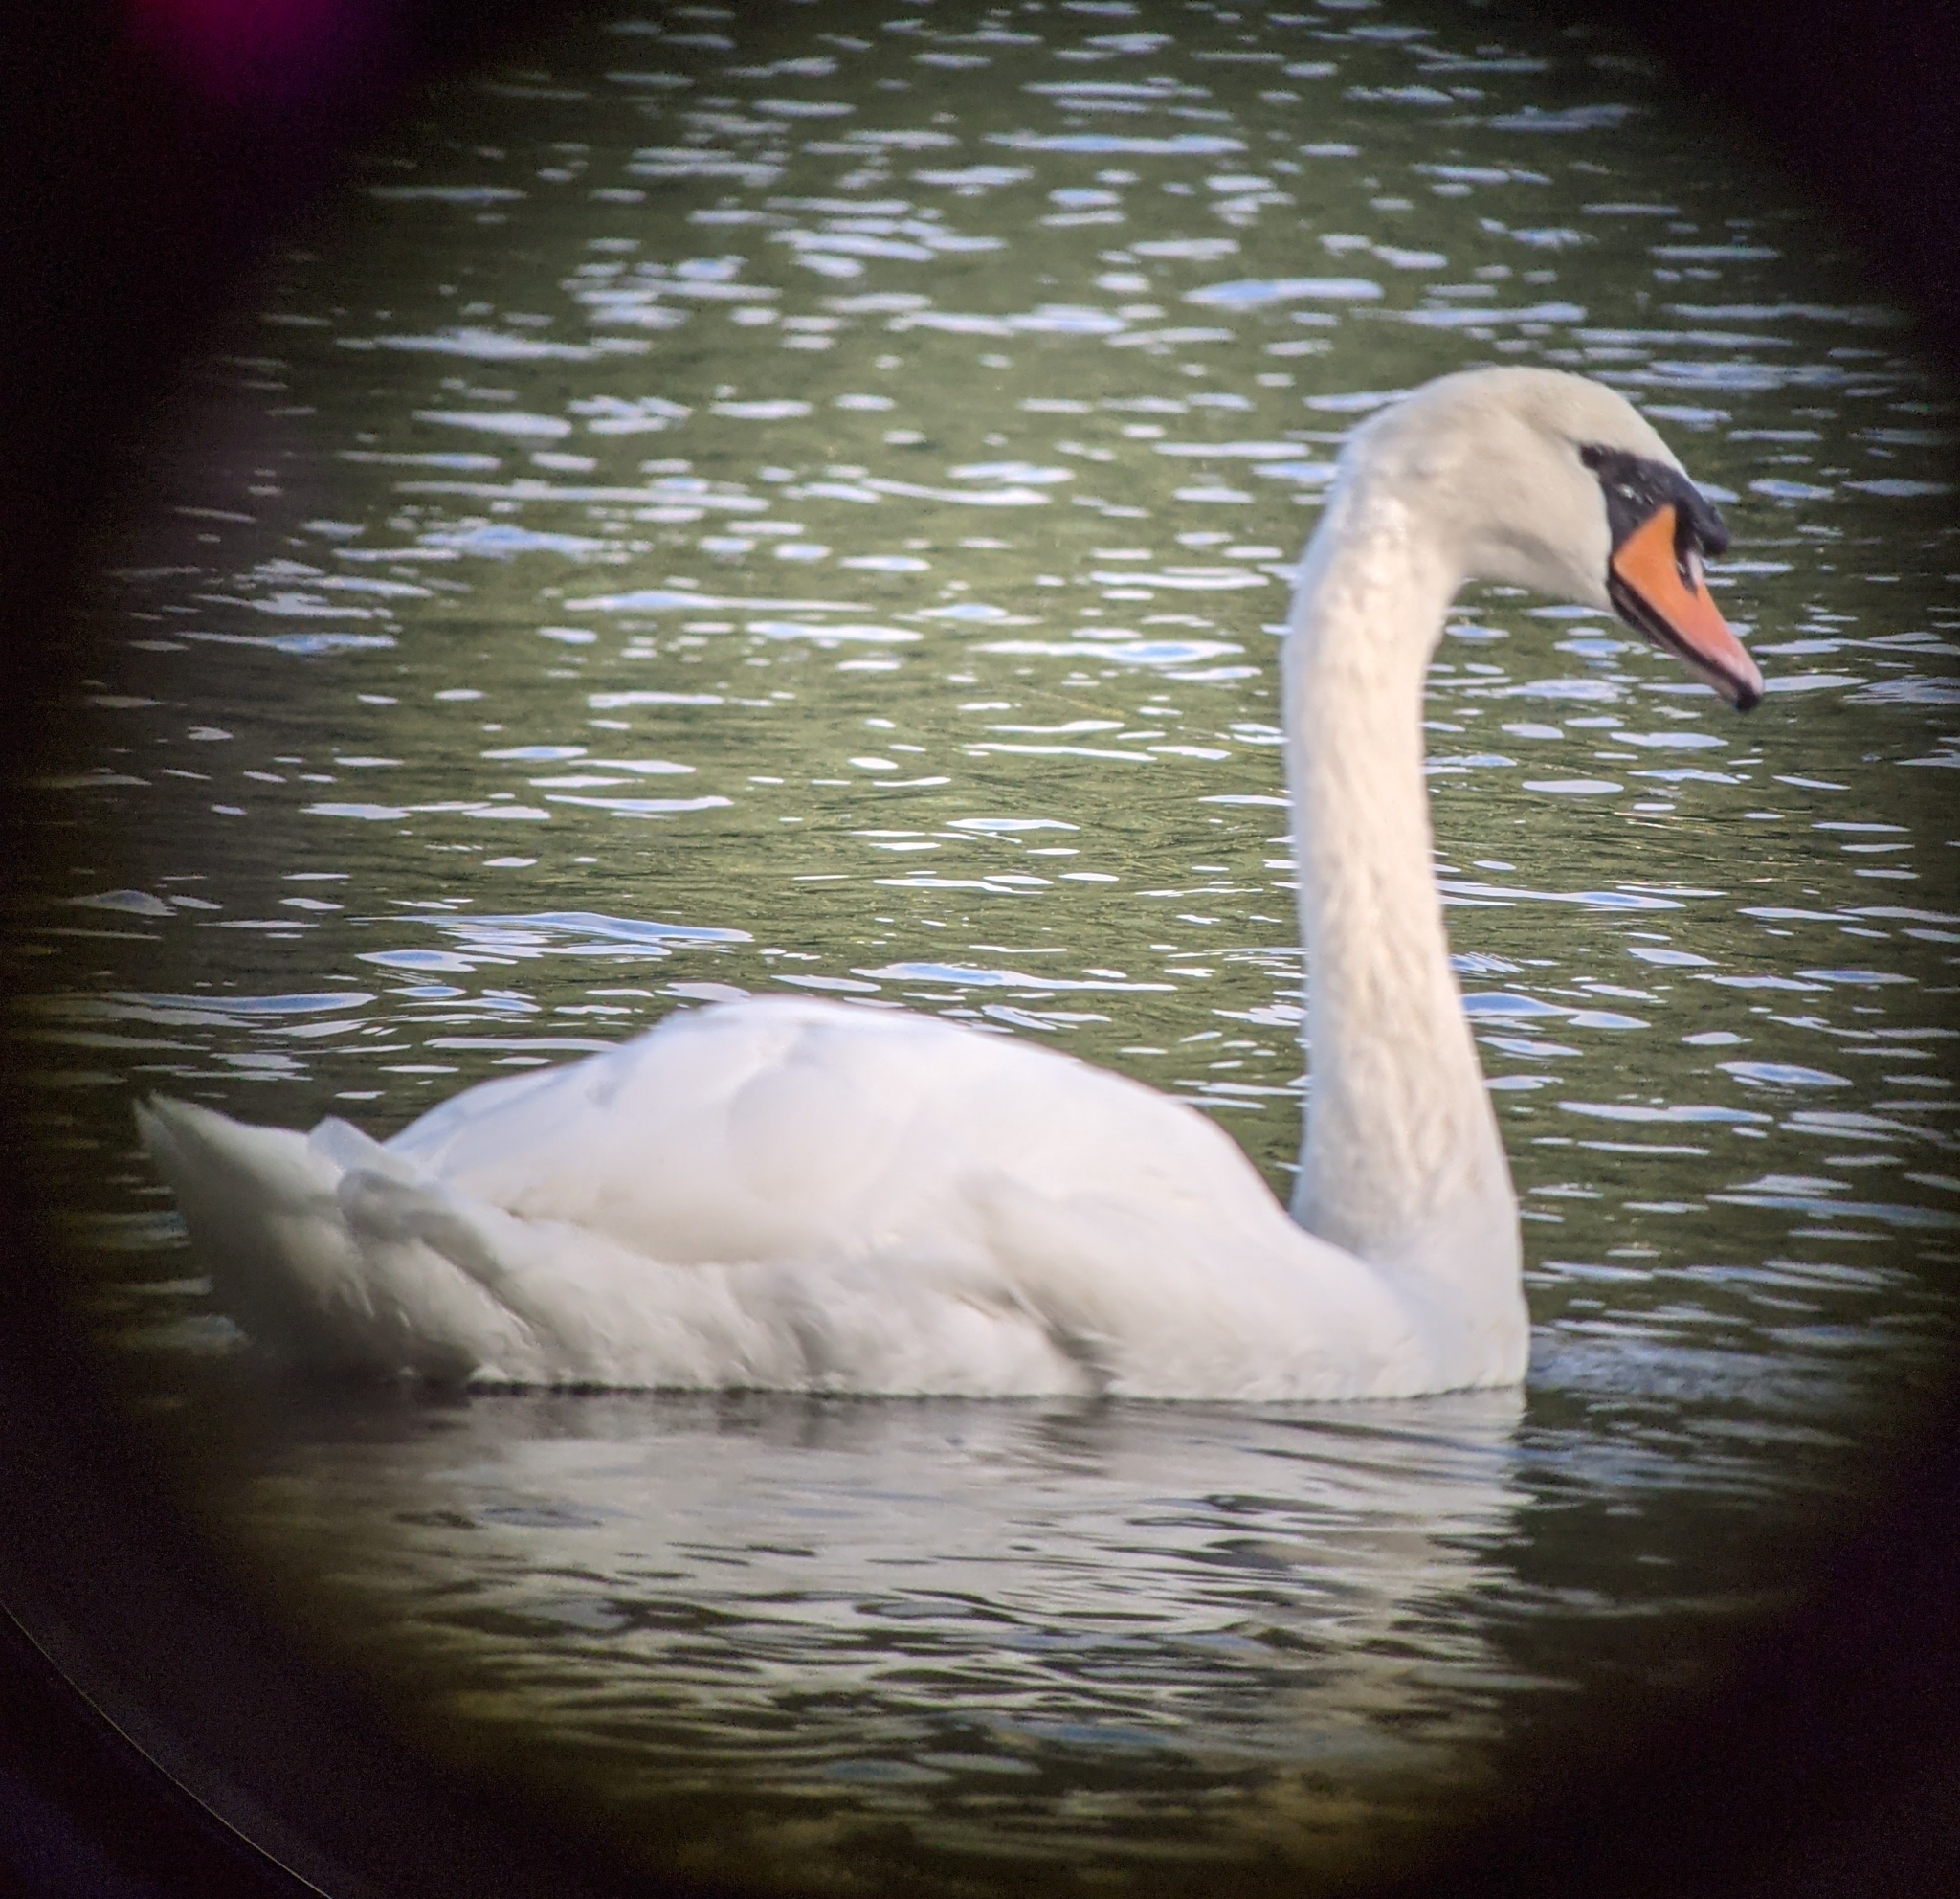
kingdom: Animalia
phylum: Chordata
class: Aves
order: Anseriformes
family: Anatidae
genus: Cygnus
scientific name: Cygnus olor
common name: Mute swan
